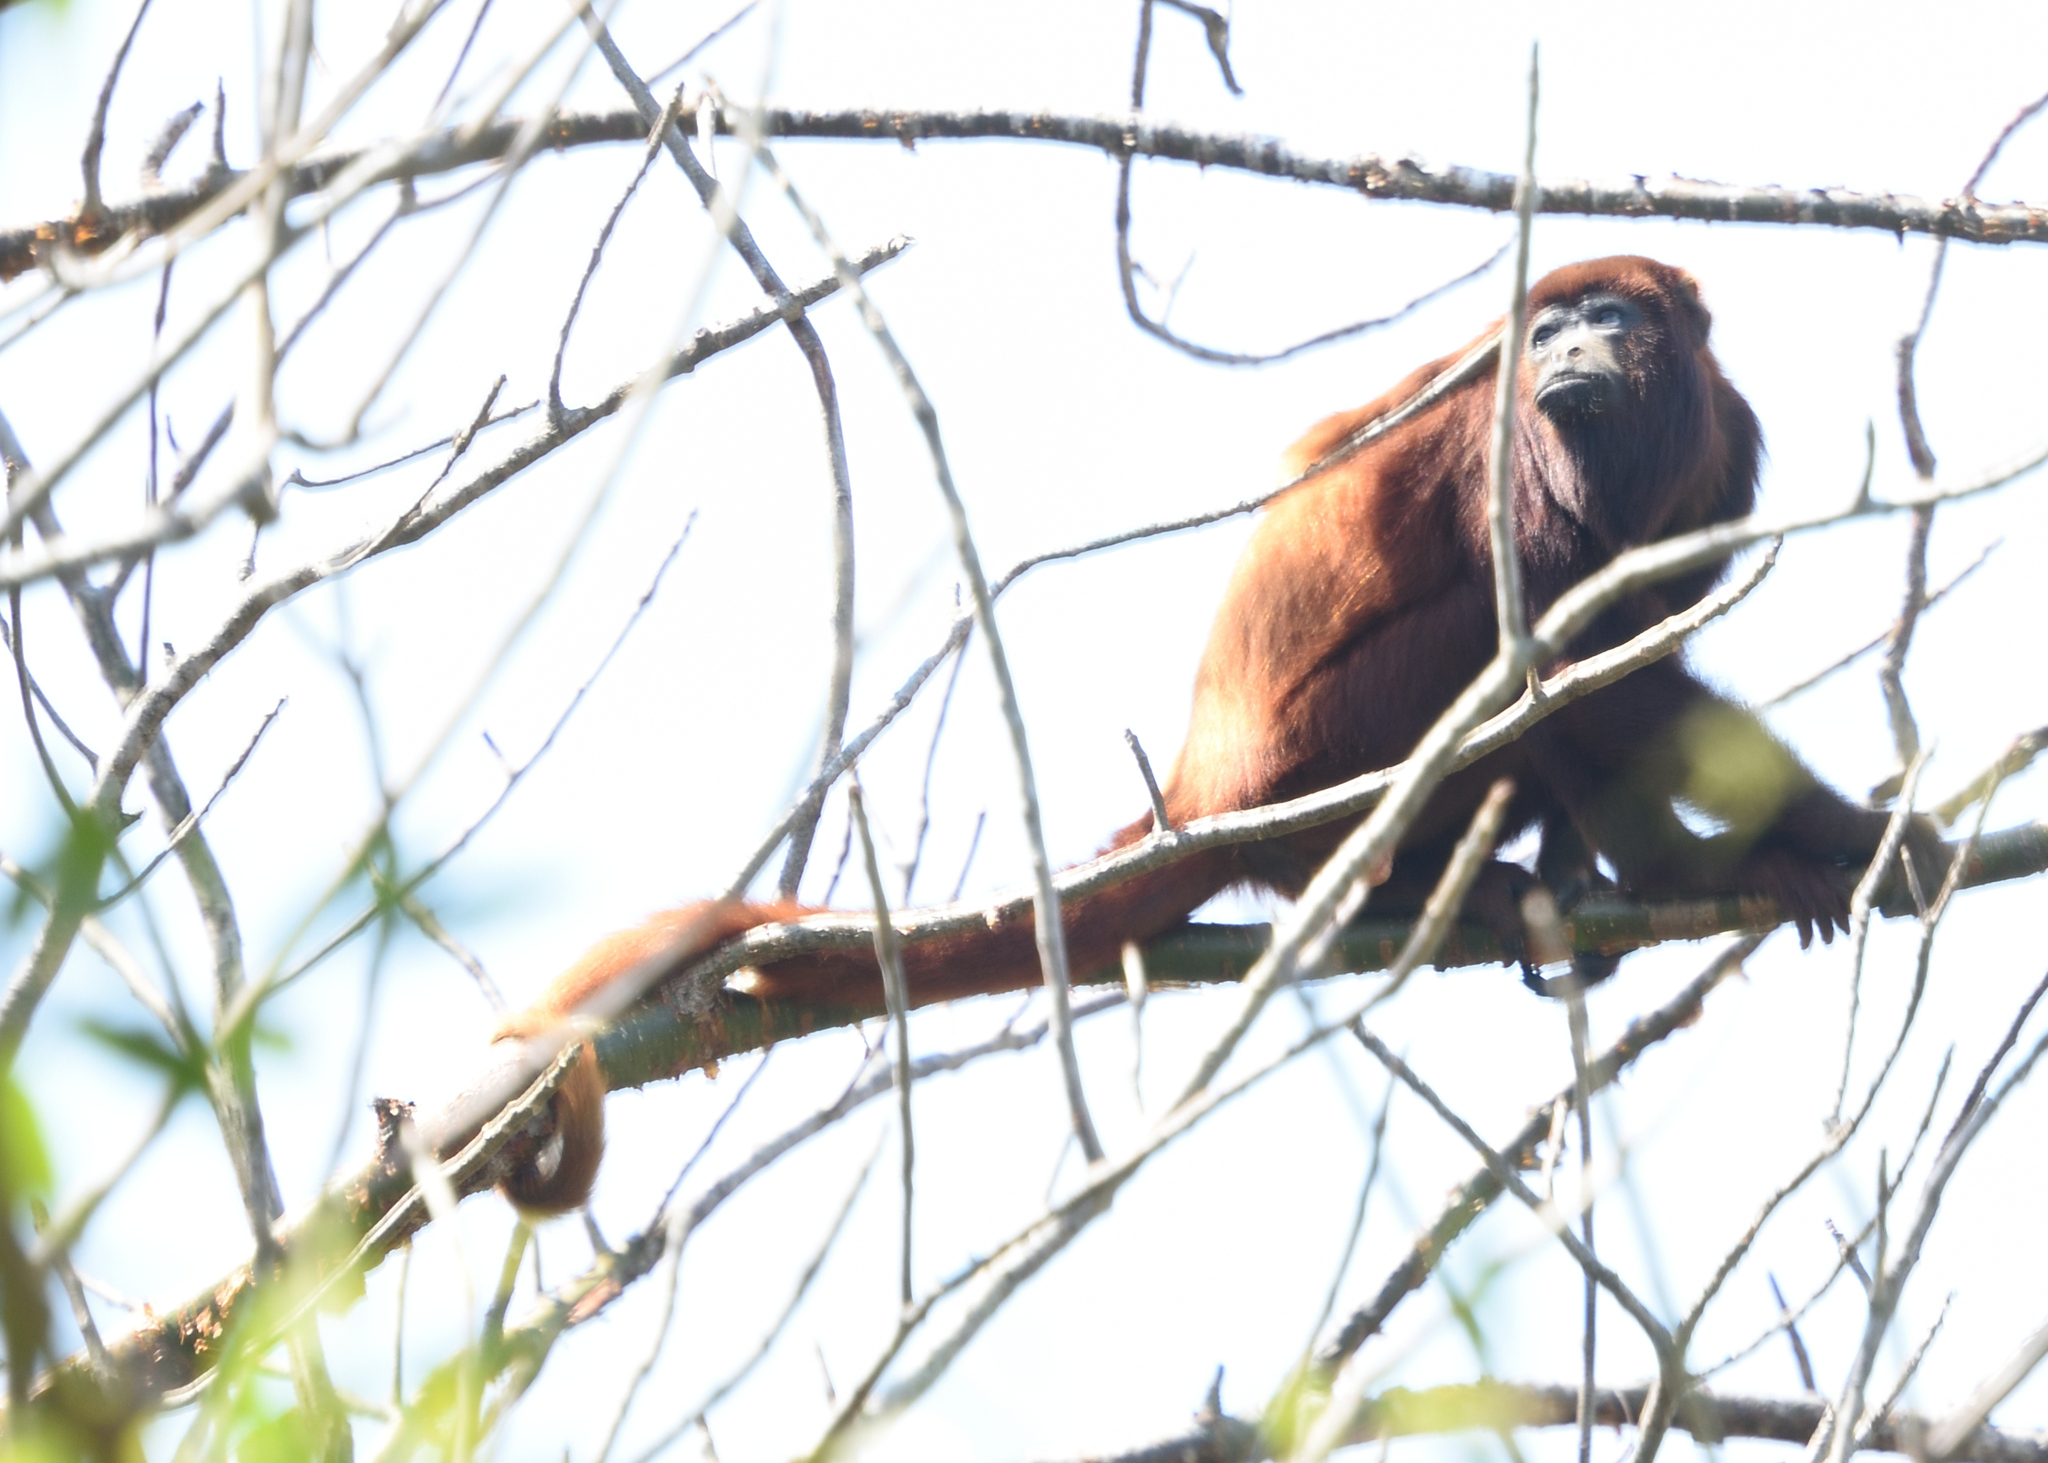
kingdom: Animalia
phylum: Chordata
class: Mammalia
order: Primates
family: Atelidae
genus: Alouatta
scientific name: Alouatta seniculus
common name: Venezuelan red howler
